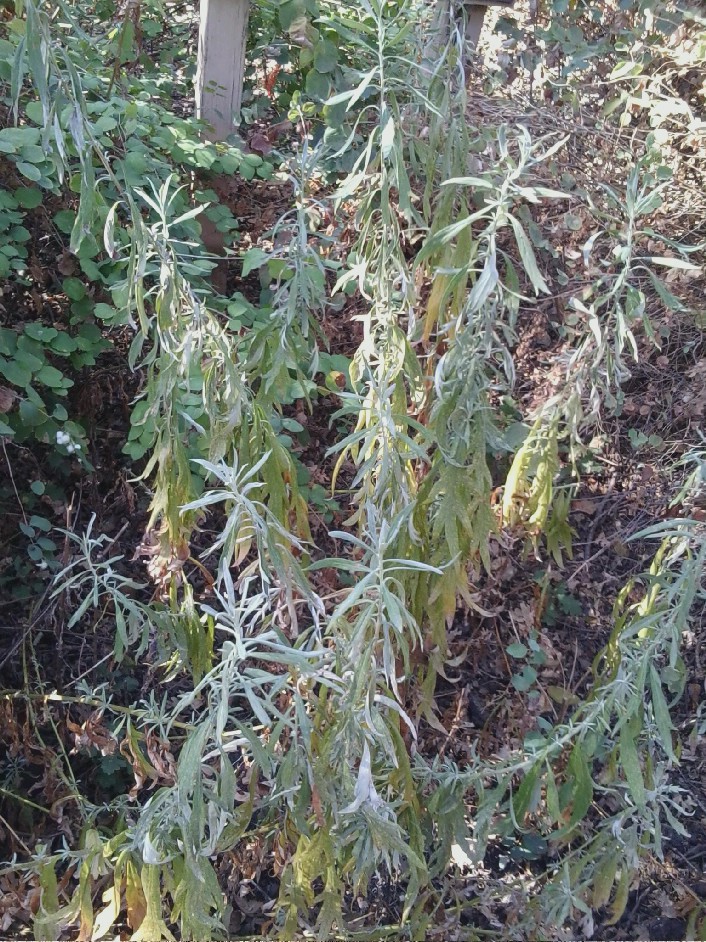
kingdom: Plantae
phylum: Tracheophyta
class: Magnoliopsida
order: Asterales
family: Asteraceae
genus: Artemisia
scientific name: Artemisia douglasiana
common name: Northwest mugwort
